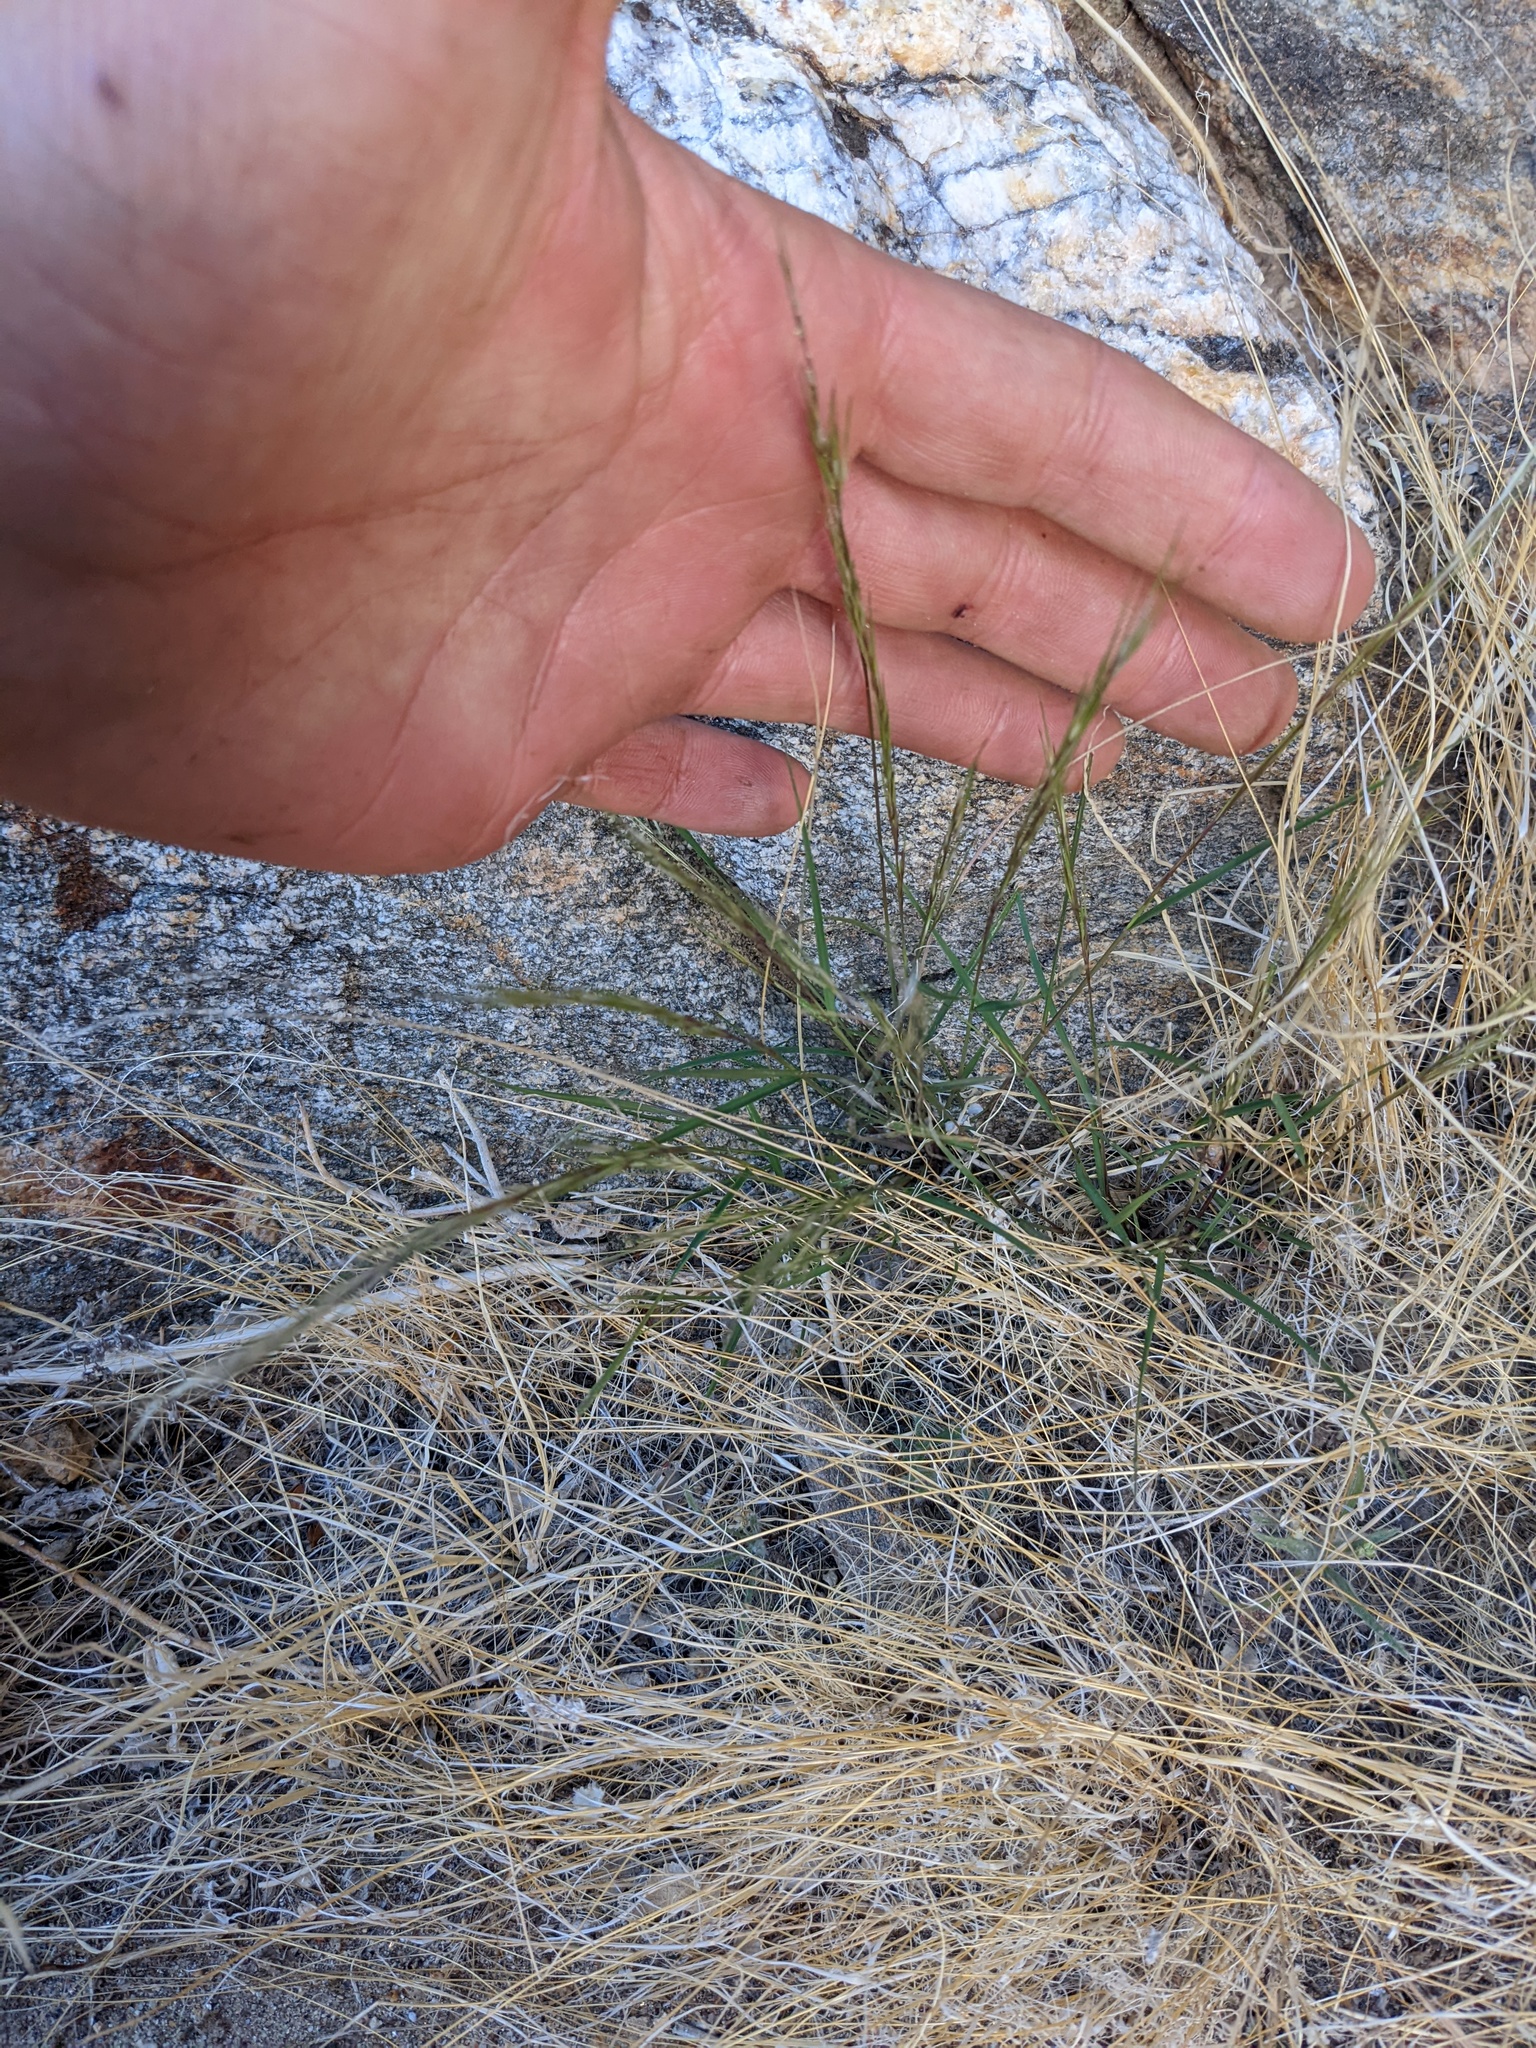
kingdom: Plantae
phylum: Tracheophyta
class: Liliopsida
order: Poales
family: Poaceae
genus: Aristida
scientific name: Aristida adscensionis
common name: Sixweeks threeawn
